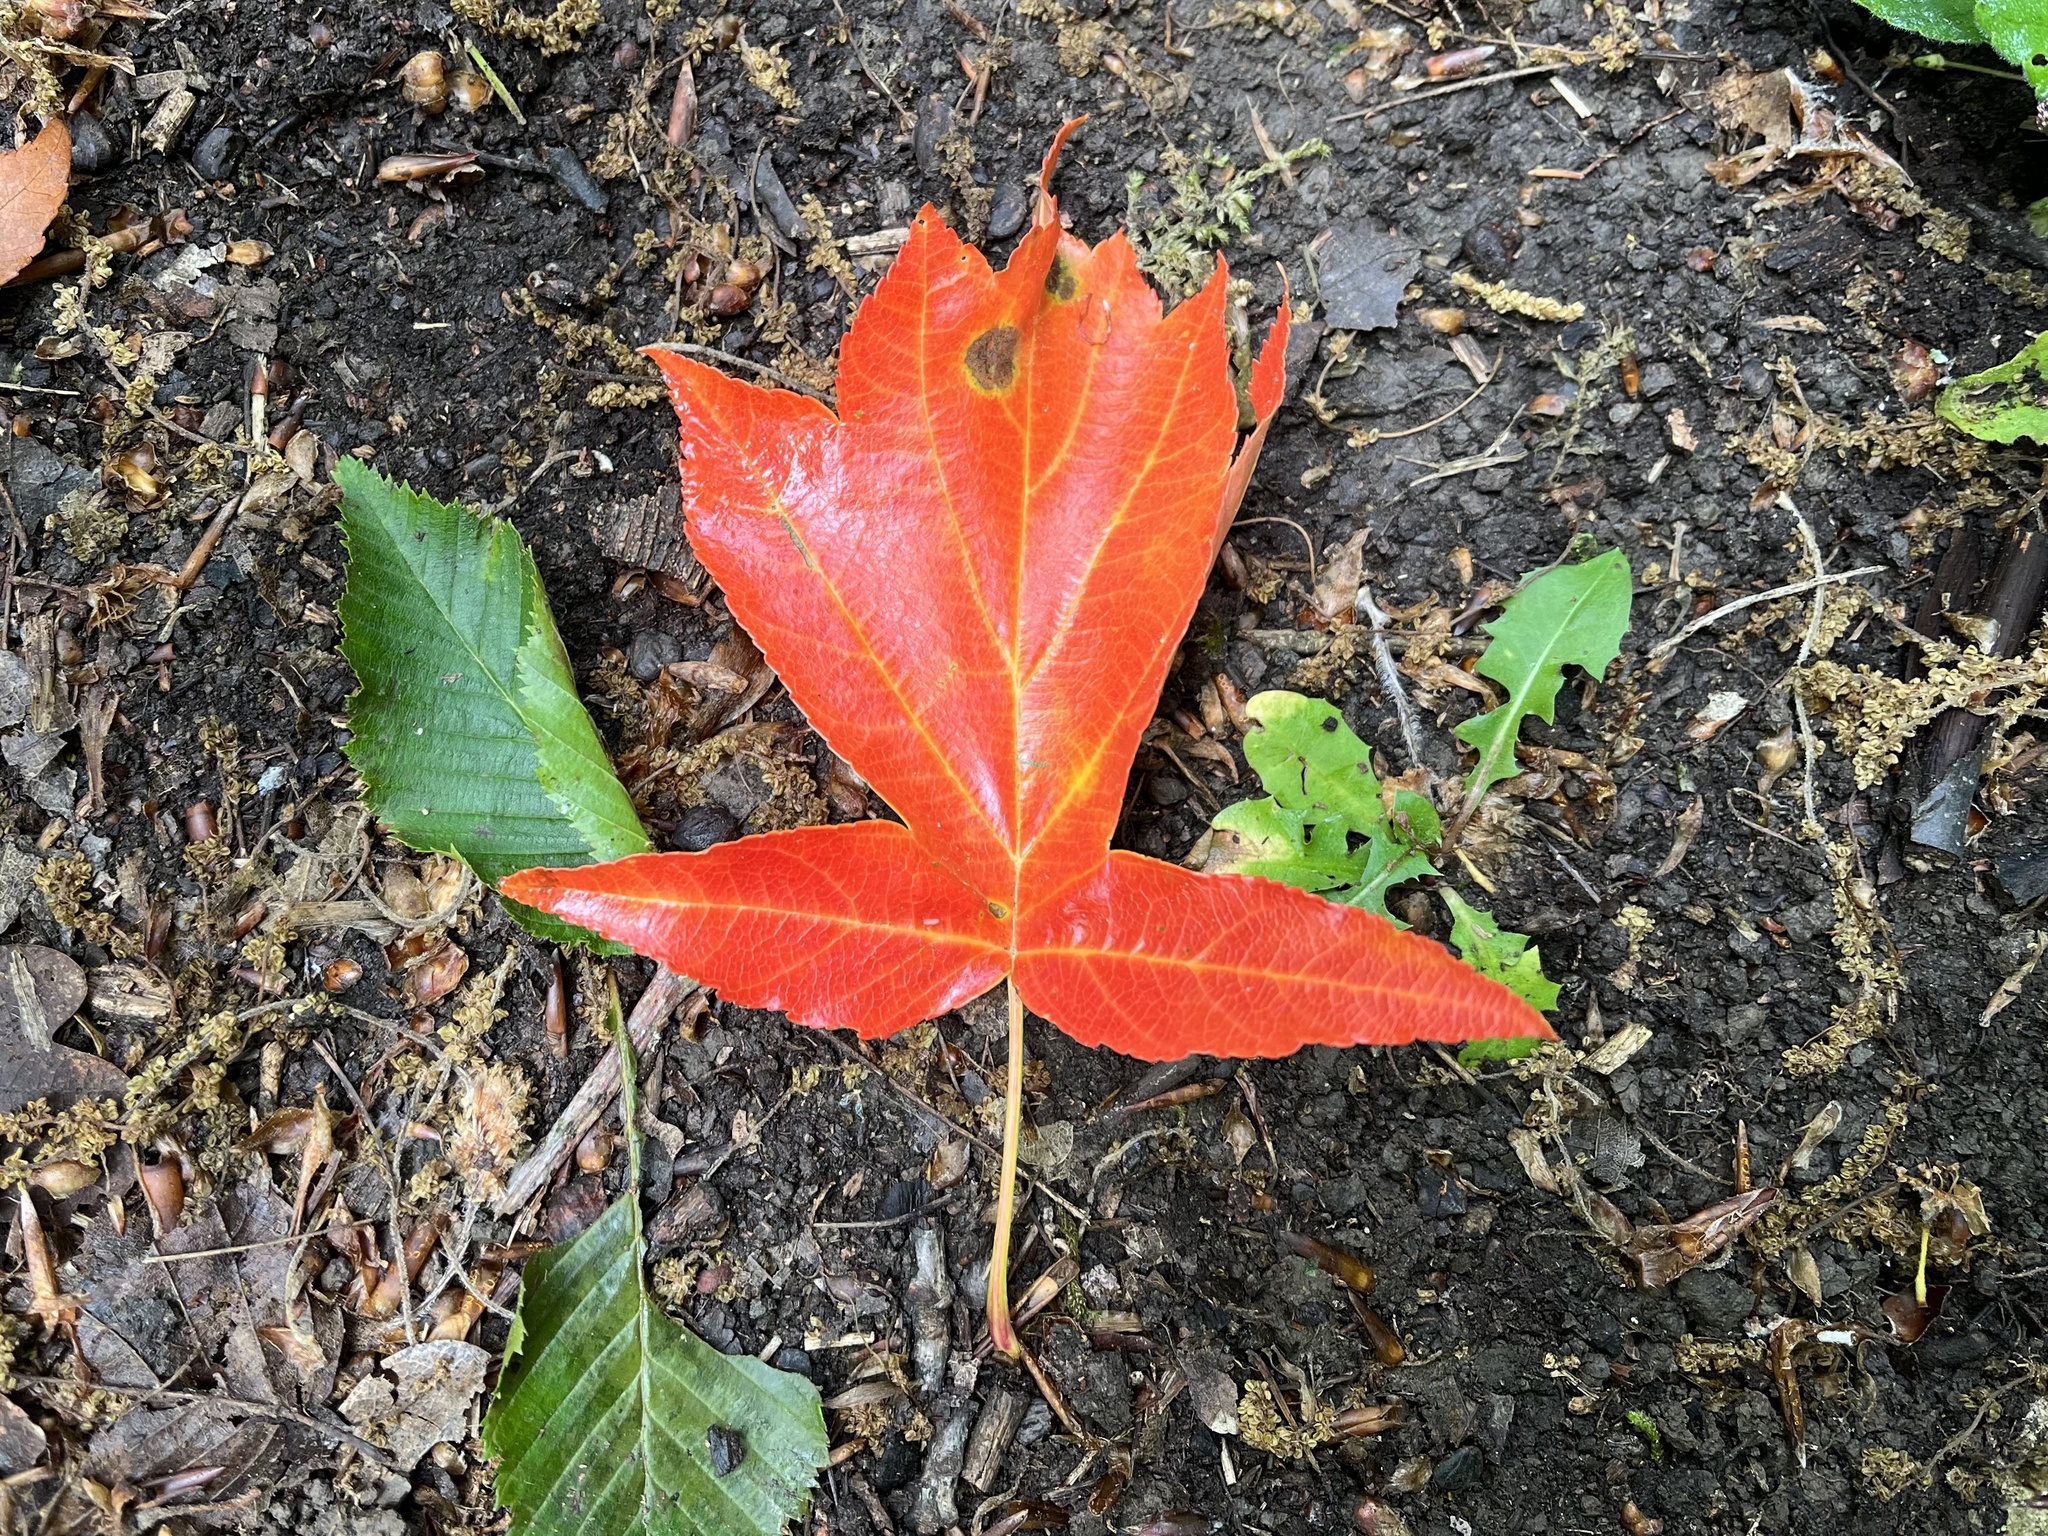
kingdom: Plantae
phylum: Tracheophyta
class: Magnoliopsida
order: Rosales
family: Rosaceae
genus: Torminalis
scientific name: Torminalis glaberrima
